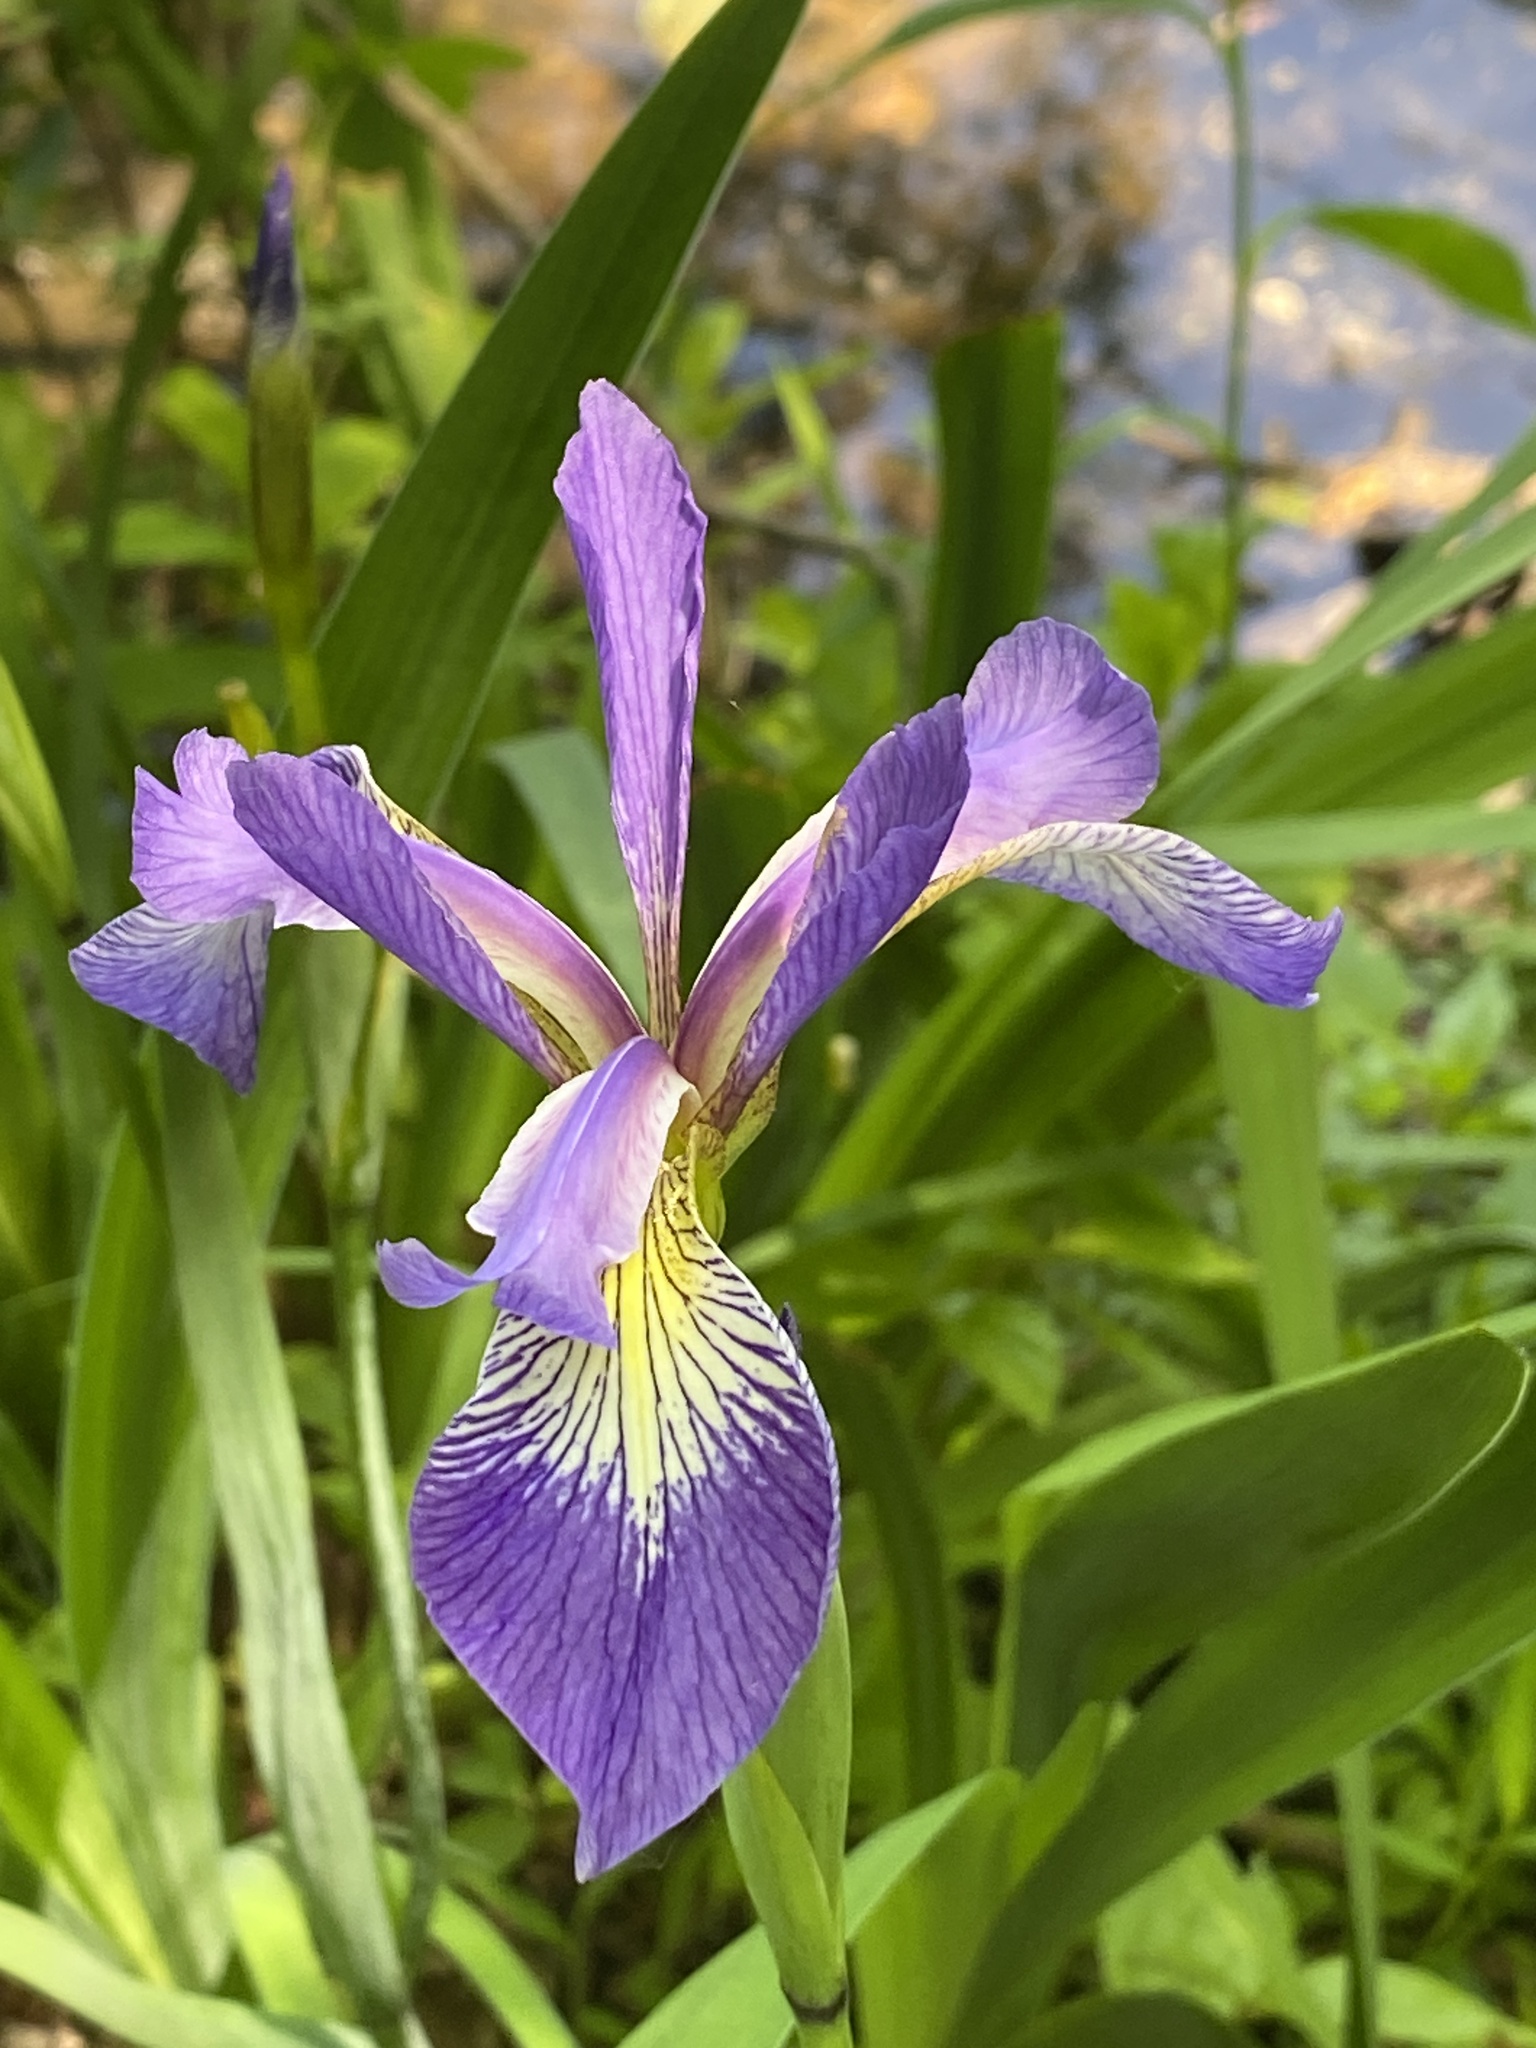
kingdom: Plantae
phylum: Tracheophyta
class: Liliopsida
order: Asparagales
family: Iridaceae
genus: Iris
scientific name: Iris versicolor
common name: Purple iris
